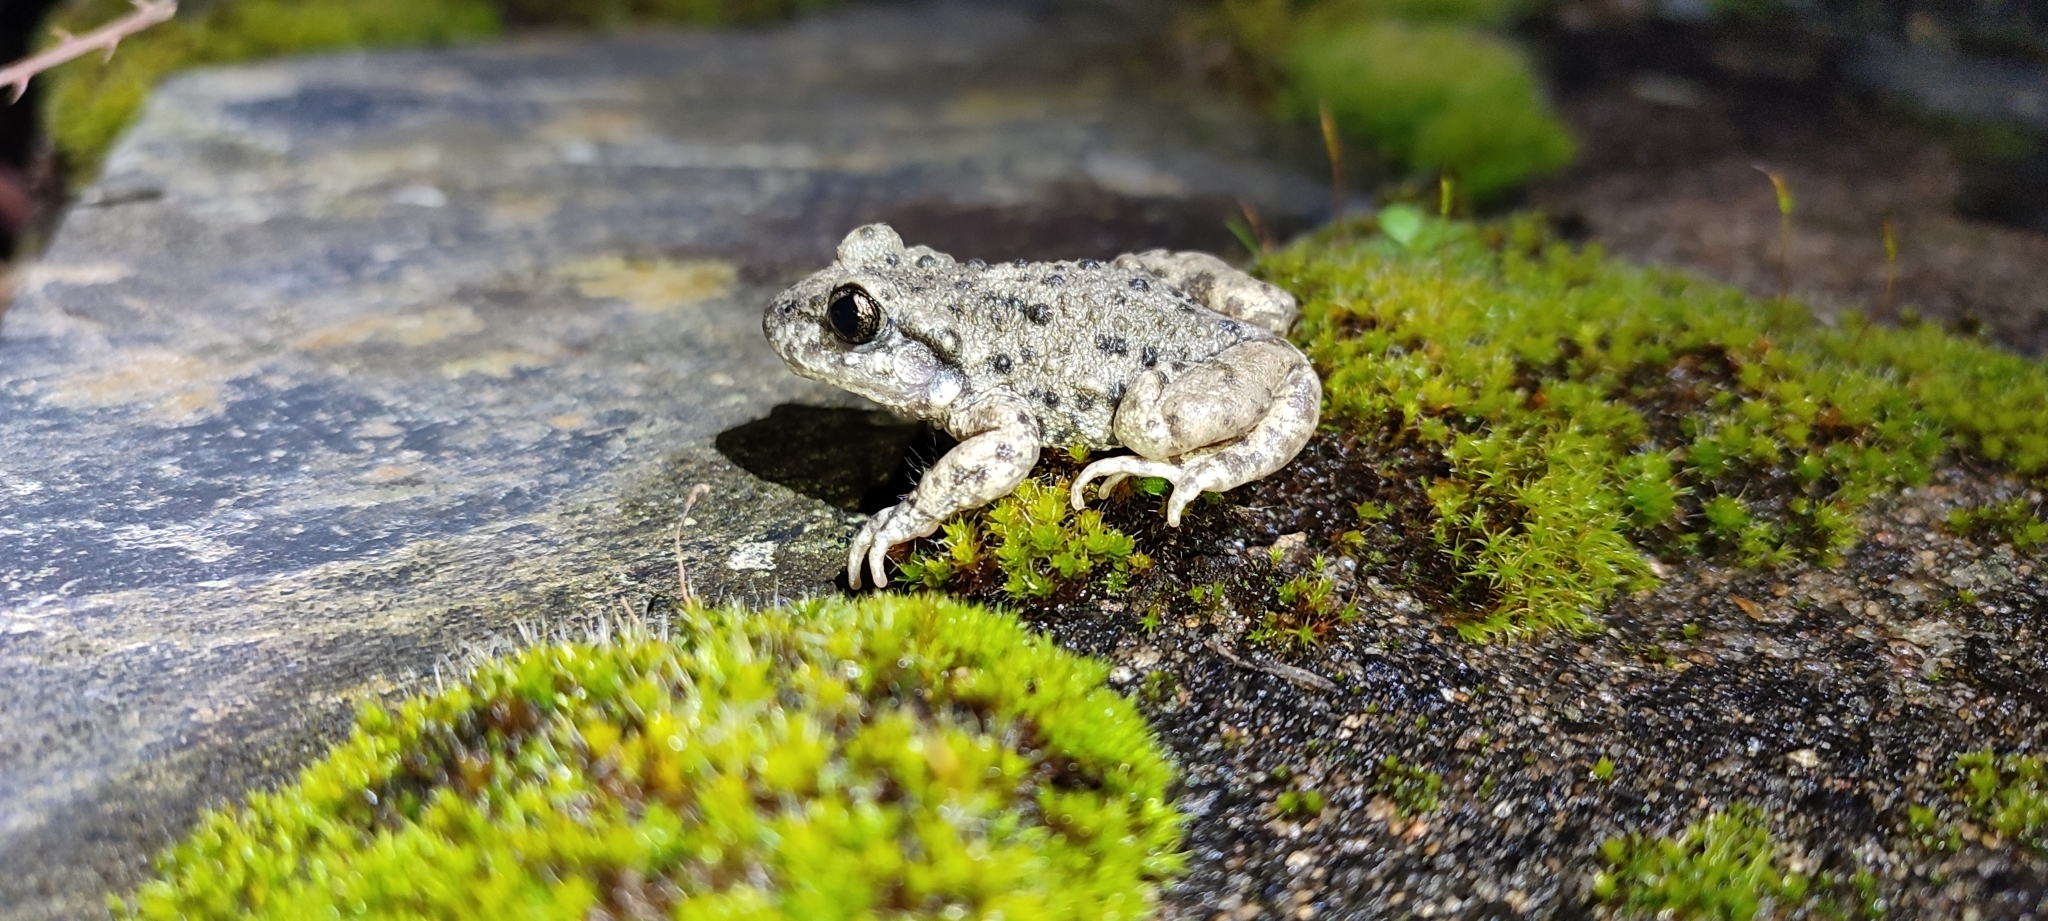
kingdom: Animalia
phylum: Chordata
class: Amphibia
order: Anura
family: Alytidae
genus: Alytes
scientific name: Alytes obstetricans
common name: Midwife toad
